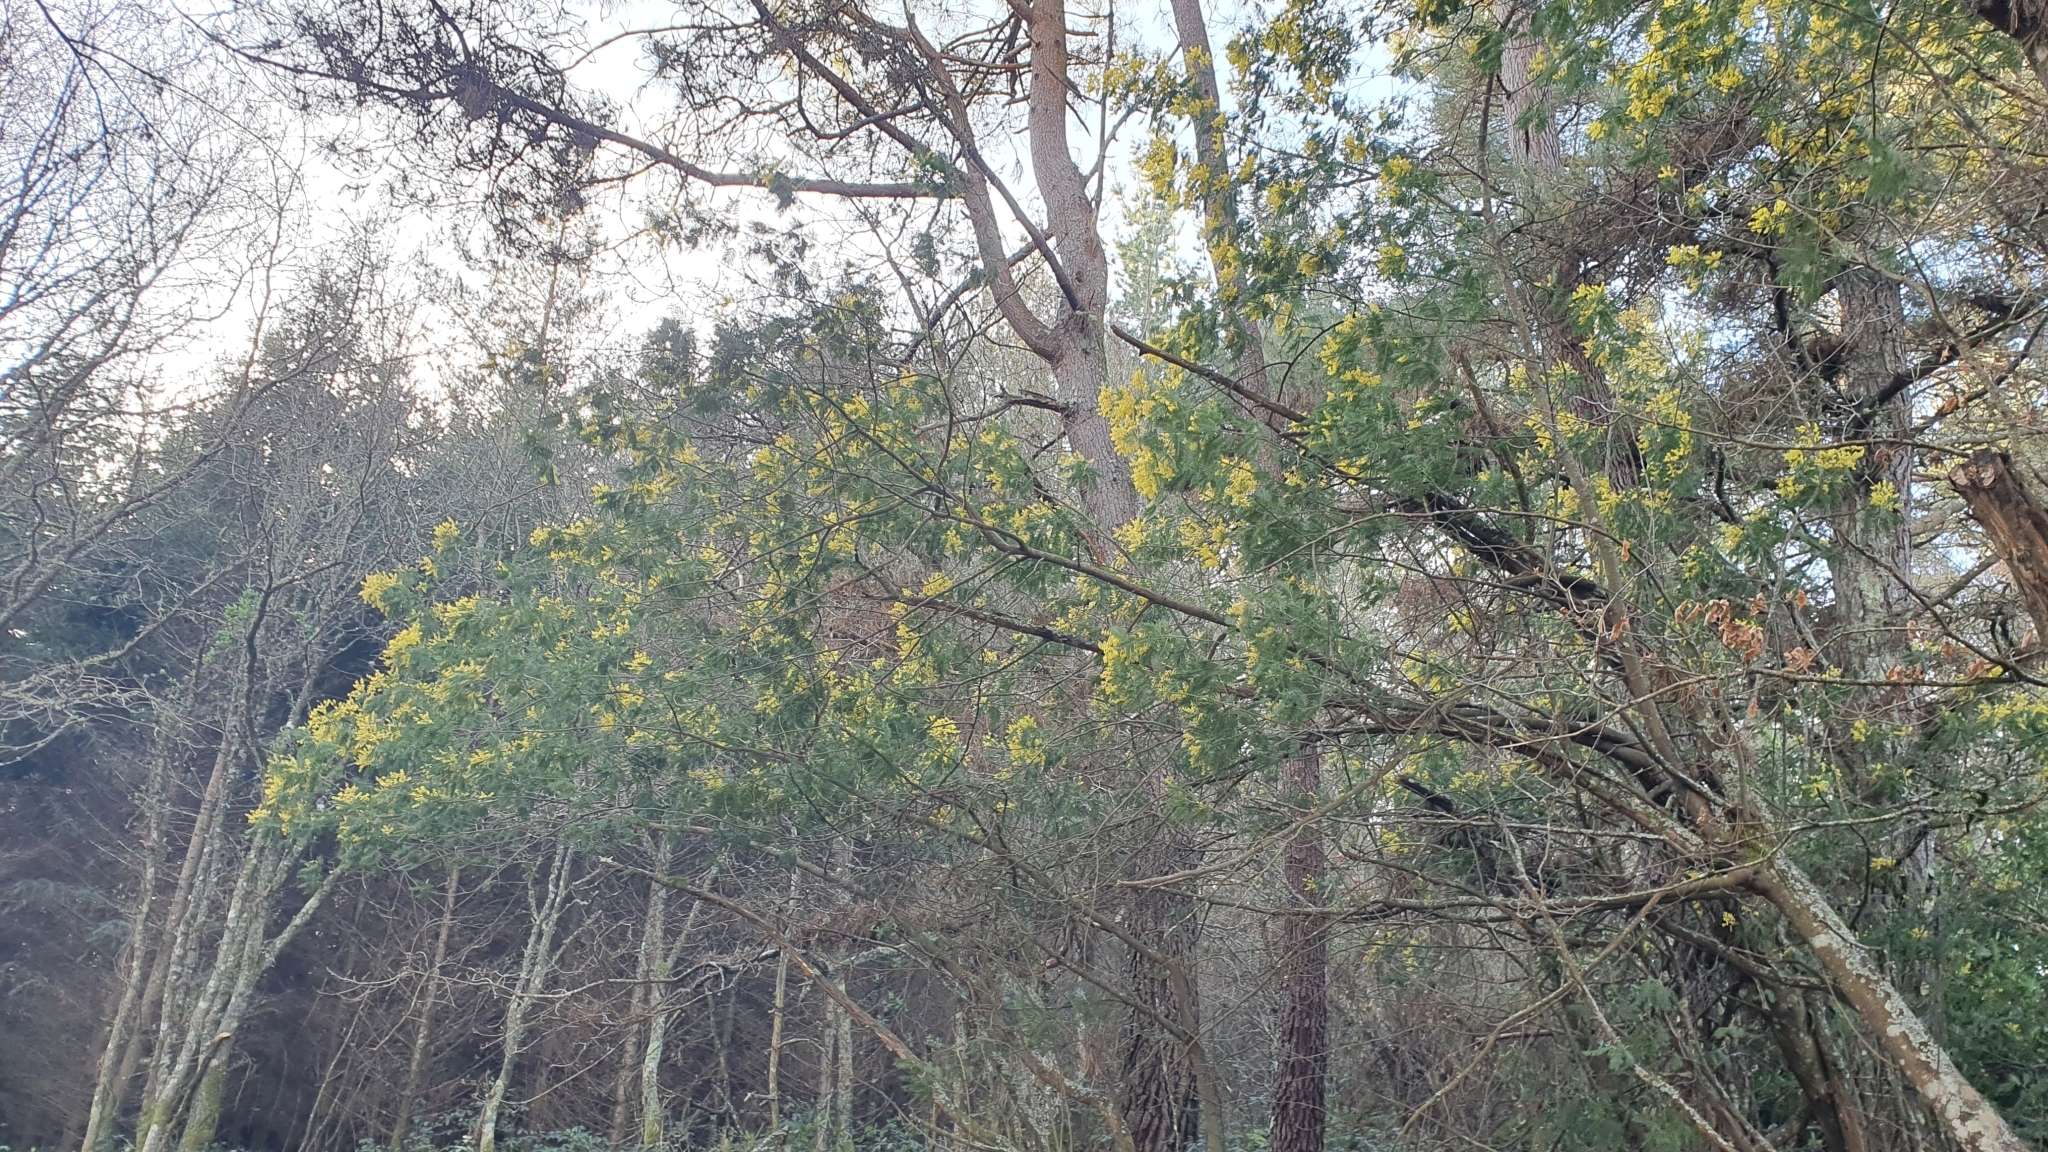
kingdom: Plantae
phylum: Tracheophyta
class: Magnoliopsida
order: Fabales
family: Fabaceae
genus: Acacia
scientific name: Acacia dealbata
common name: Silver wattle
